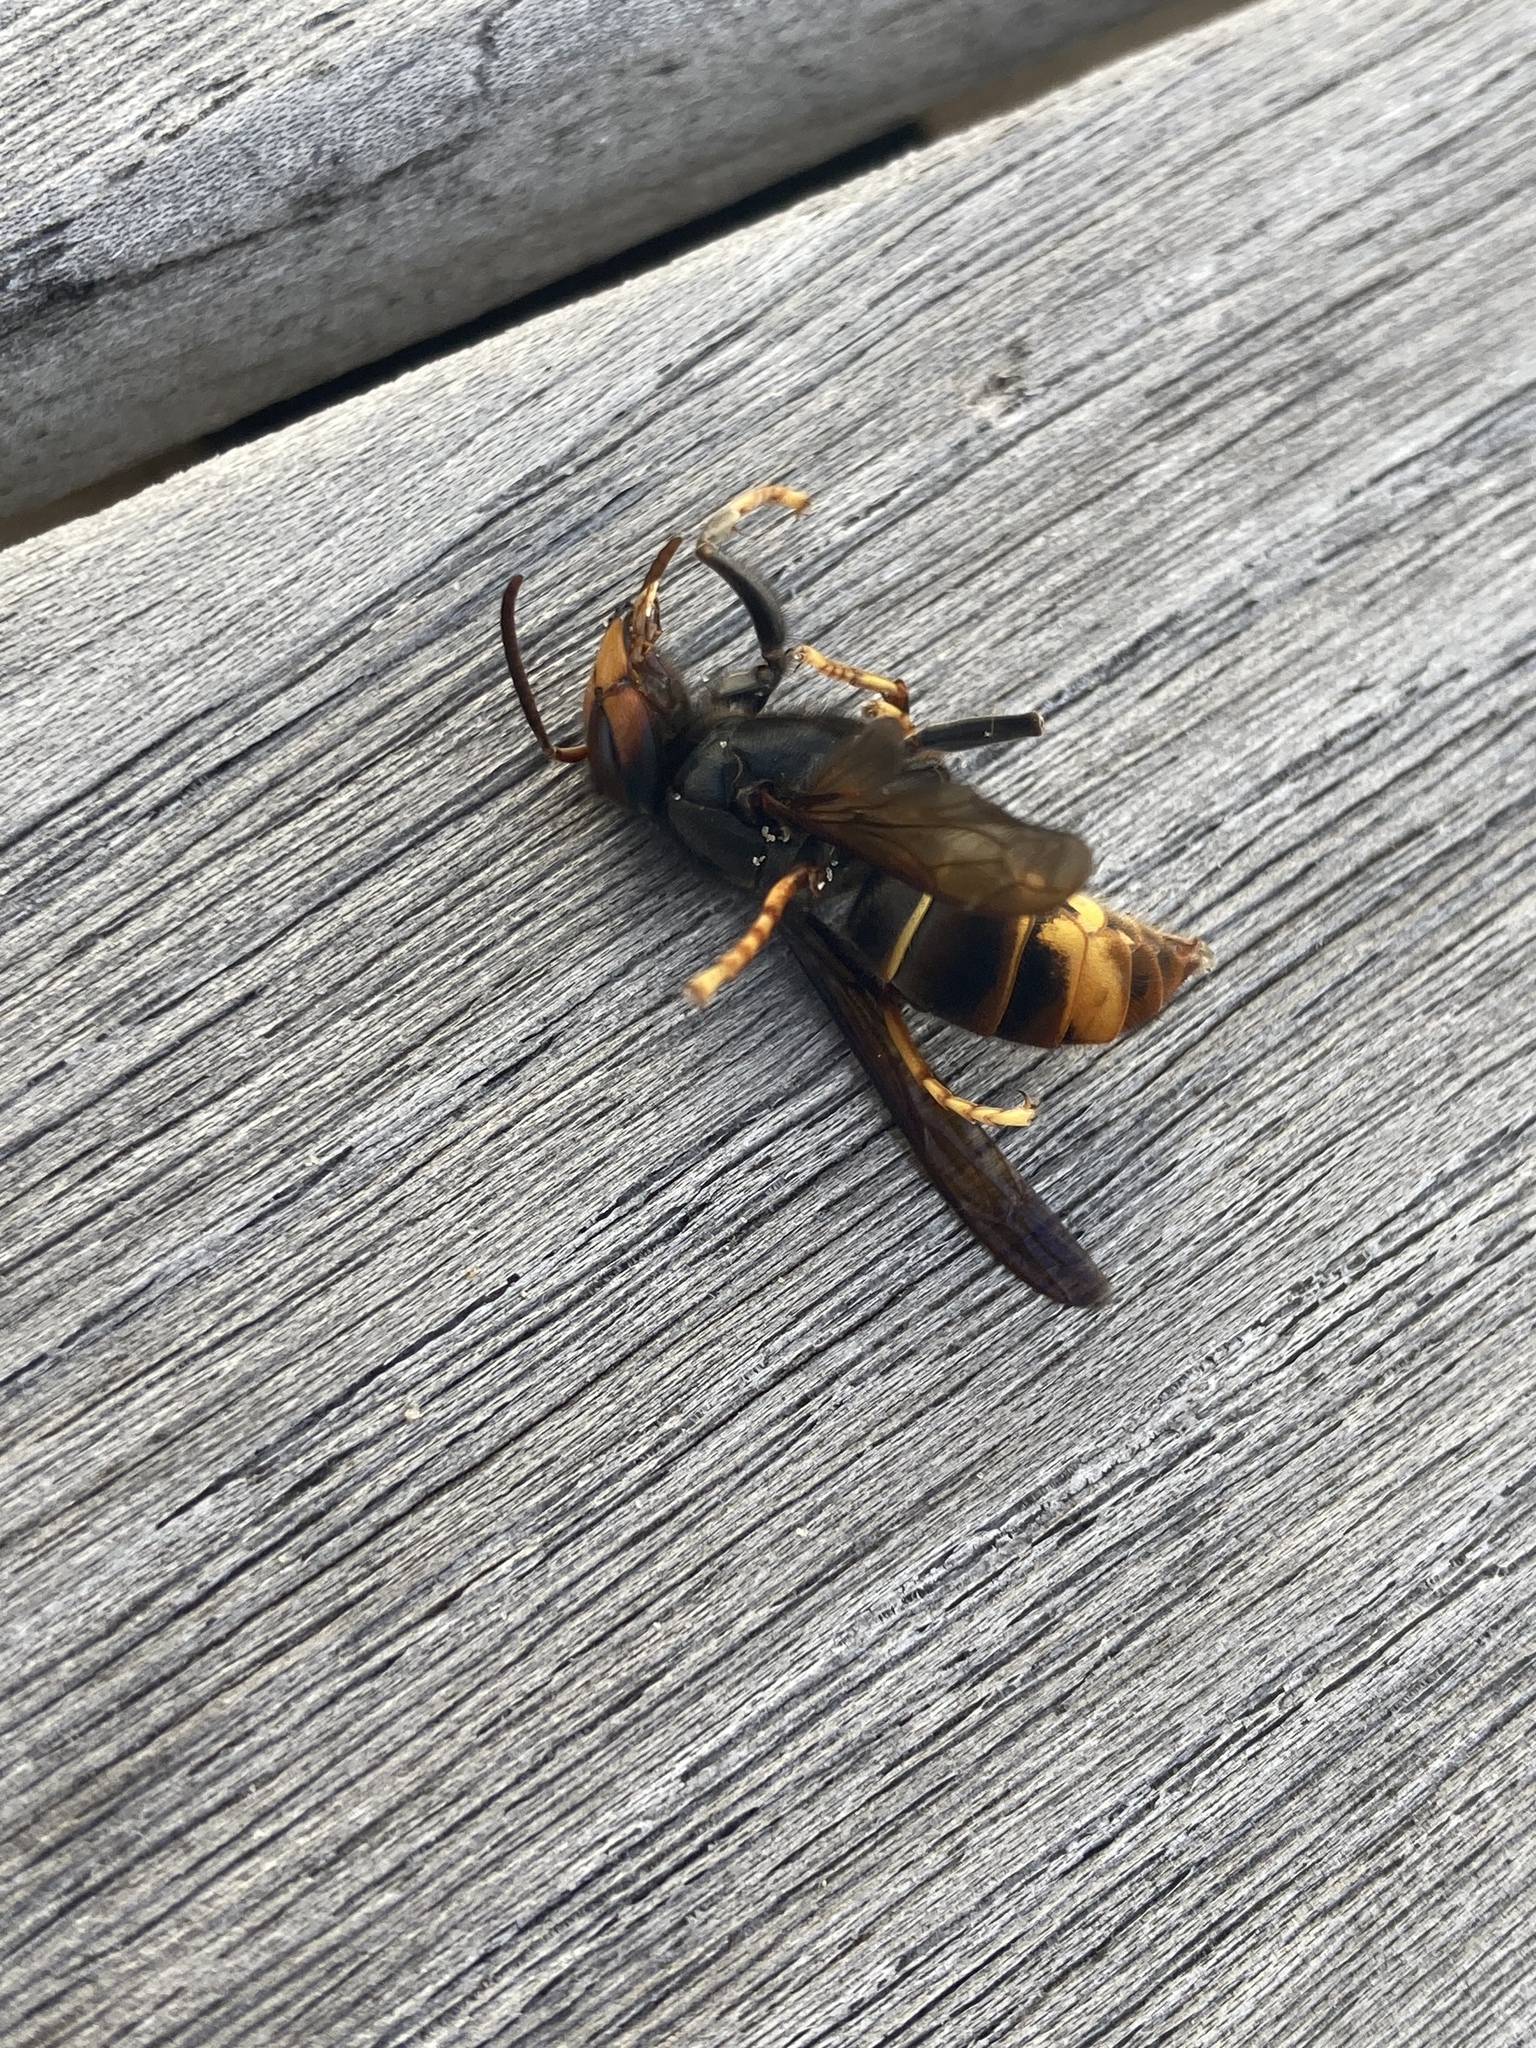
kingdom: Animalia
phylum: Arthropoda
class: Insecta
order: Hymenoptera
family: Vespidae
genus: Vespa
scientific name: Vespa velutina
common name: Asian hornet
